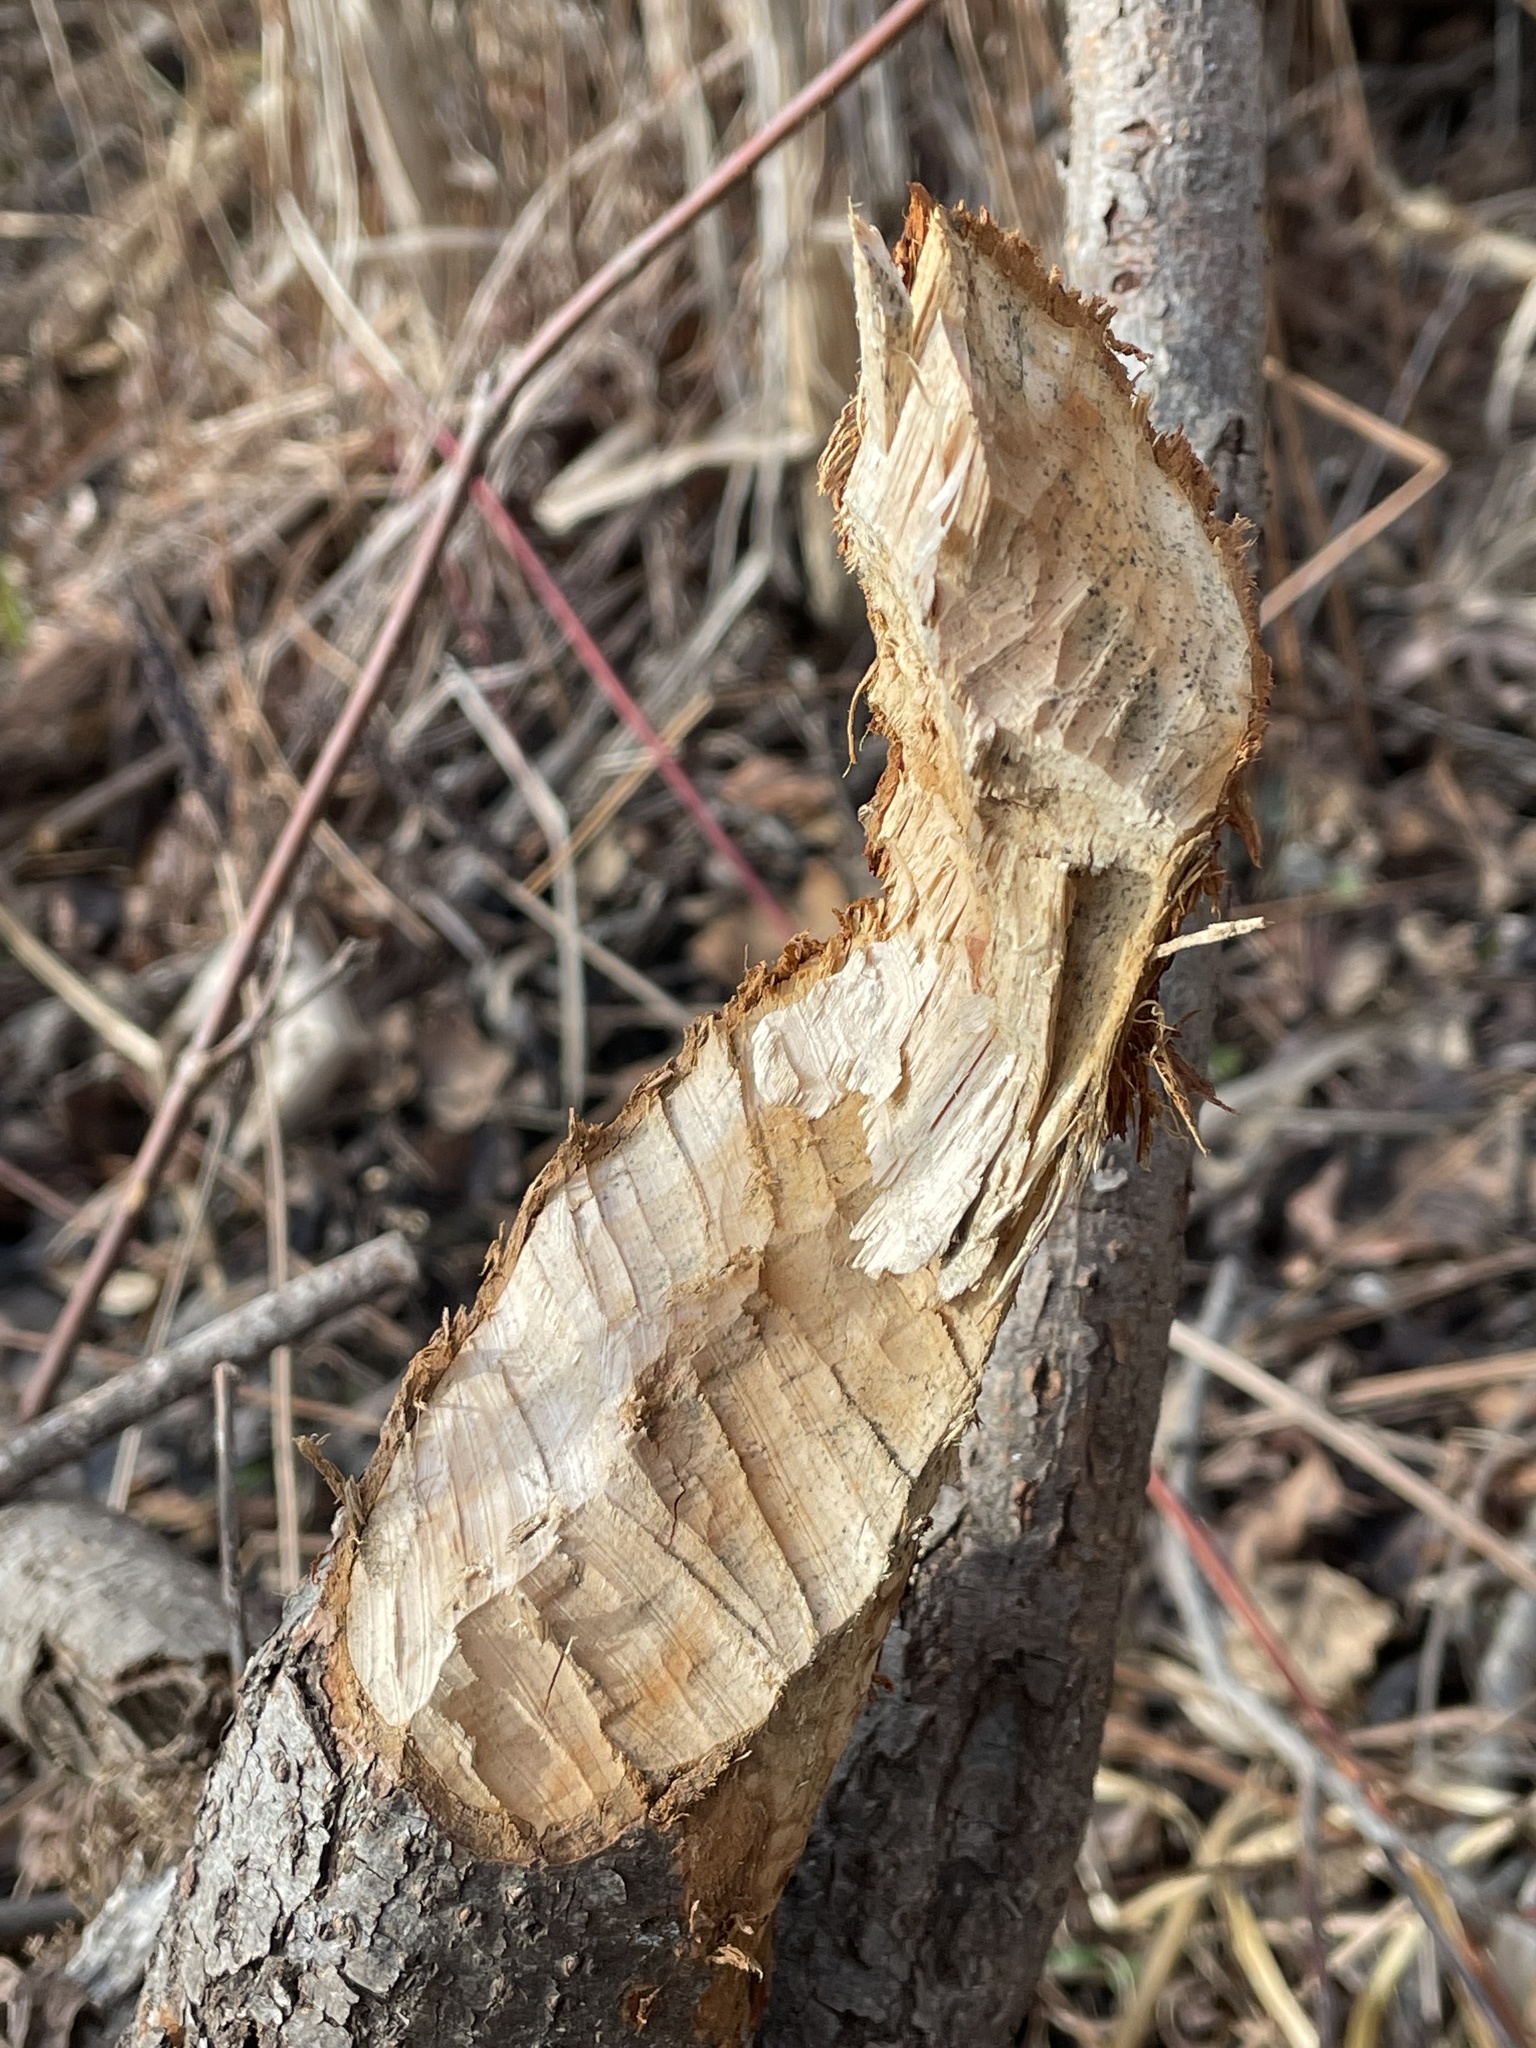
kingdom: Animalia
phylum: Chordata
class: Mammalia
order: Rodentia
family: Castoridae
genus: Castor
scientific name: Castor canadensis
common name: American beaver
